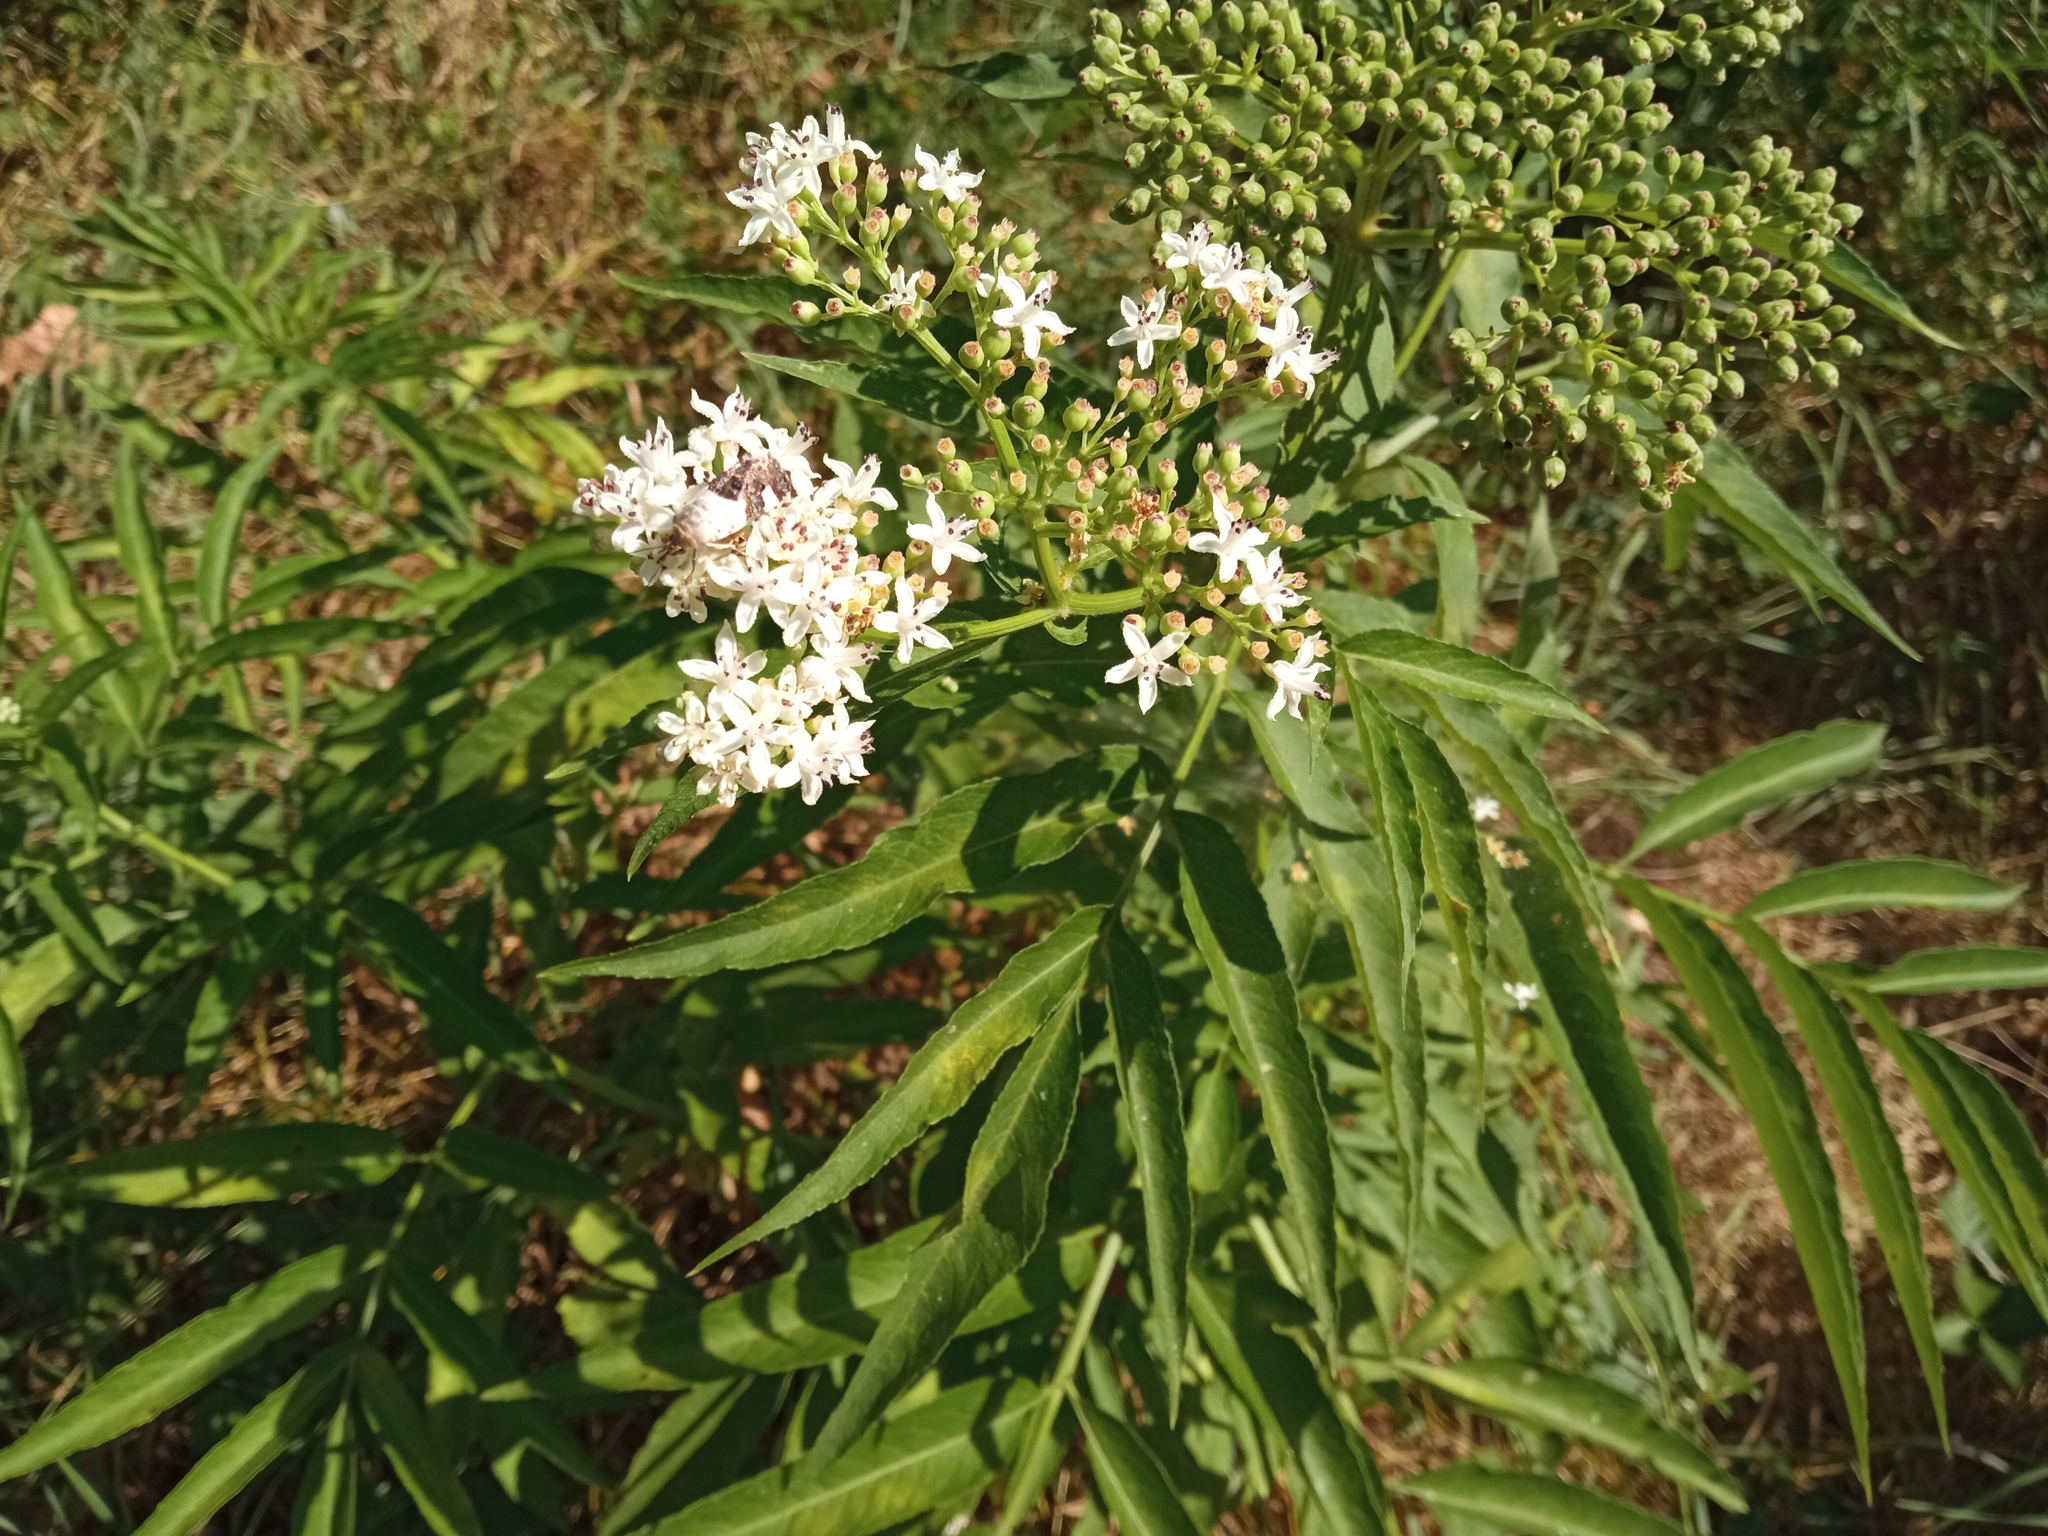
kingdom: Plantae
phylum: Tracheophyta
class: Magnoliopsida
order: Dipsacales
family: Viburnaceae
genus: Sambucus
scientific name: Sambucus ebulus
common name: Dwarf elder
